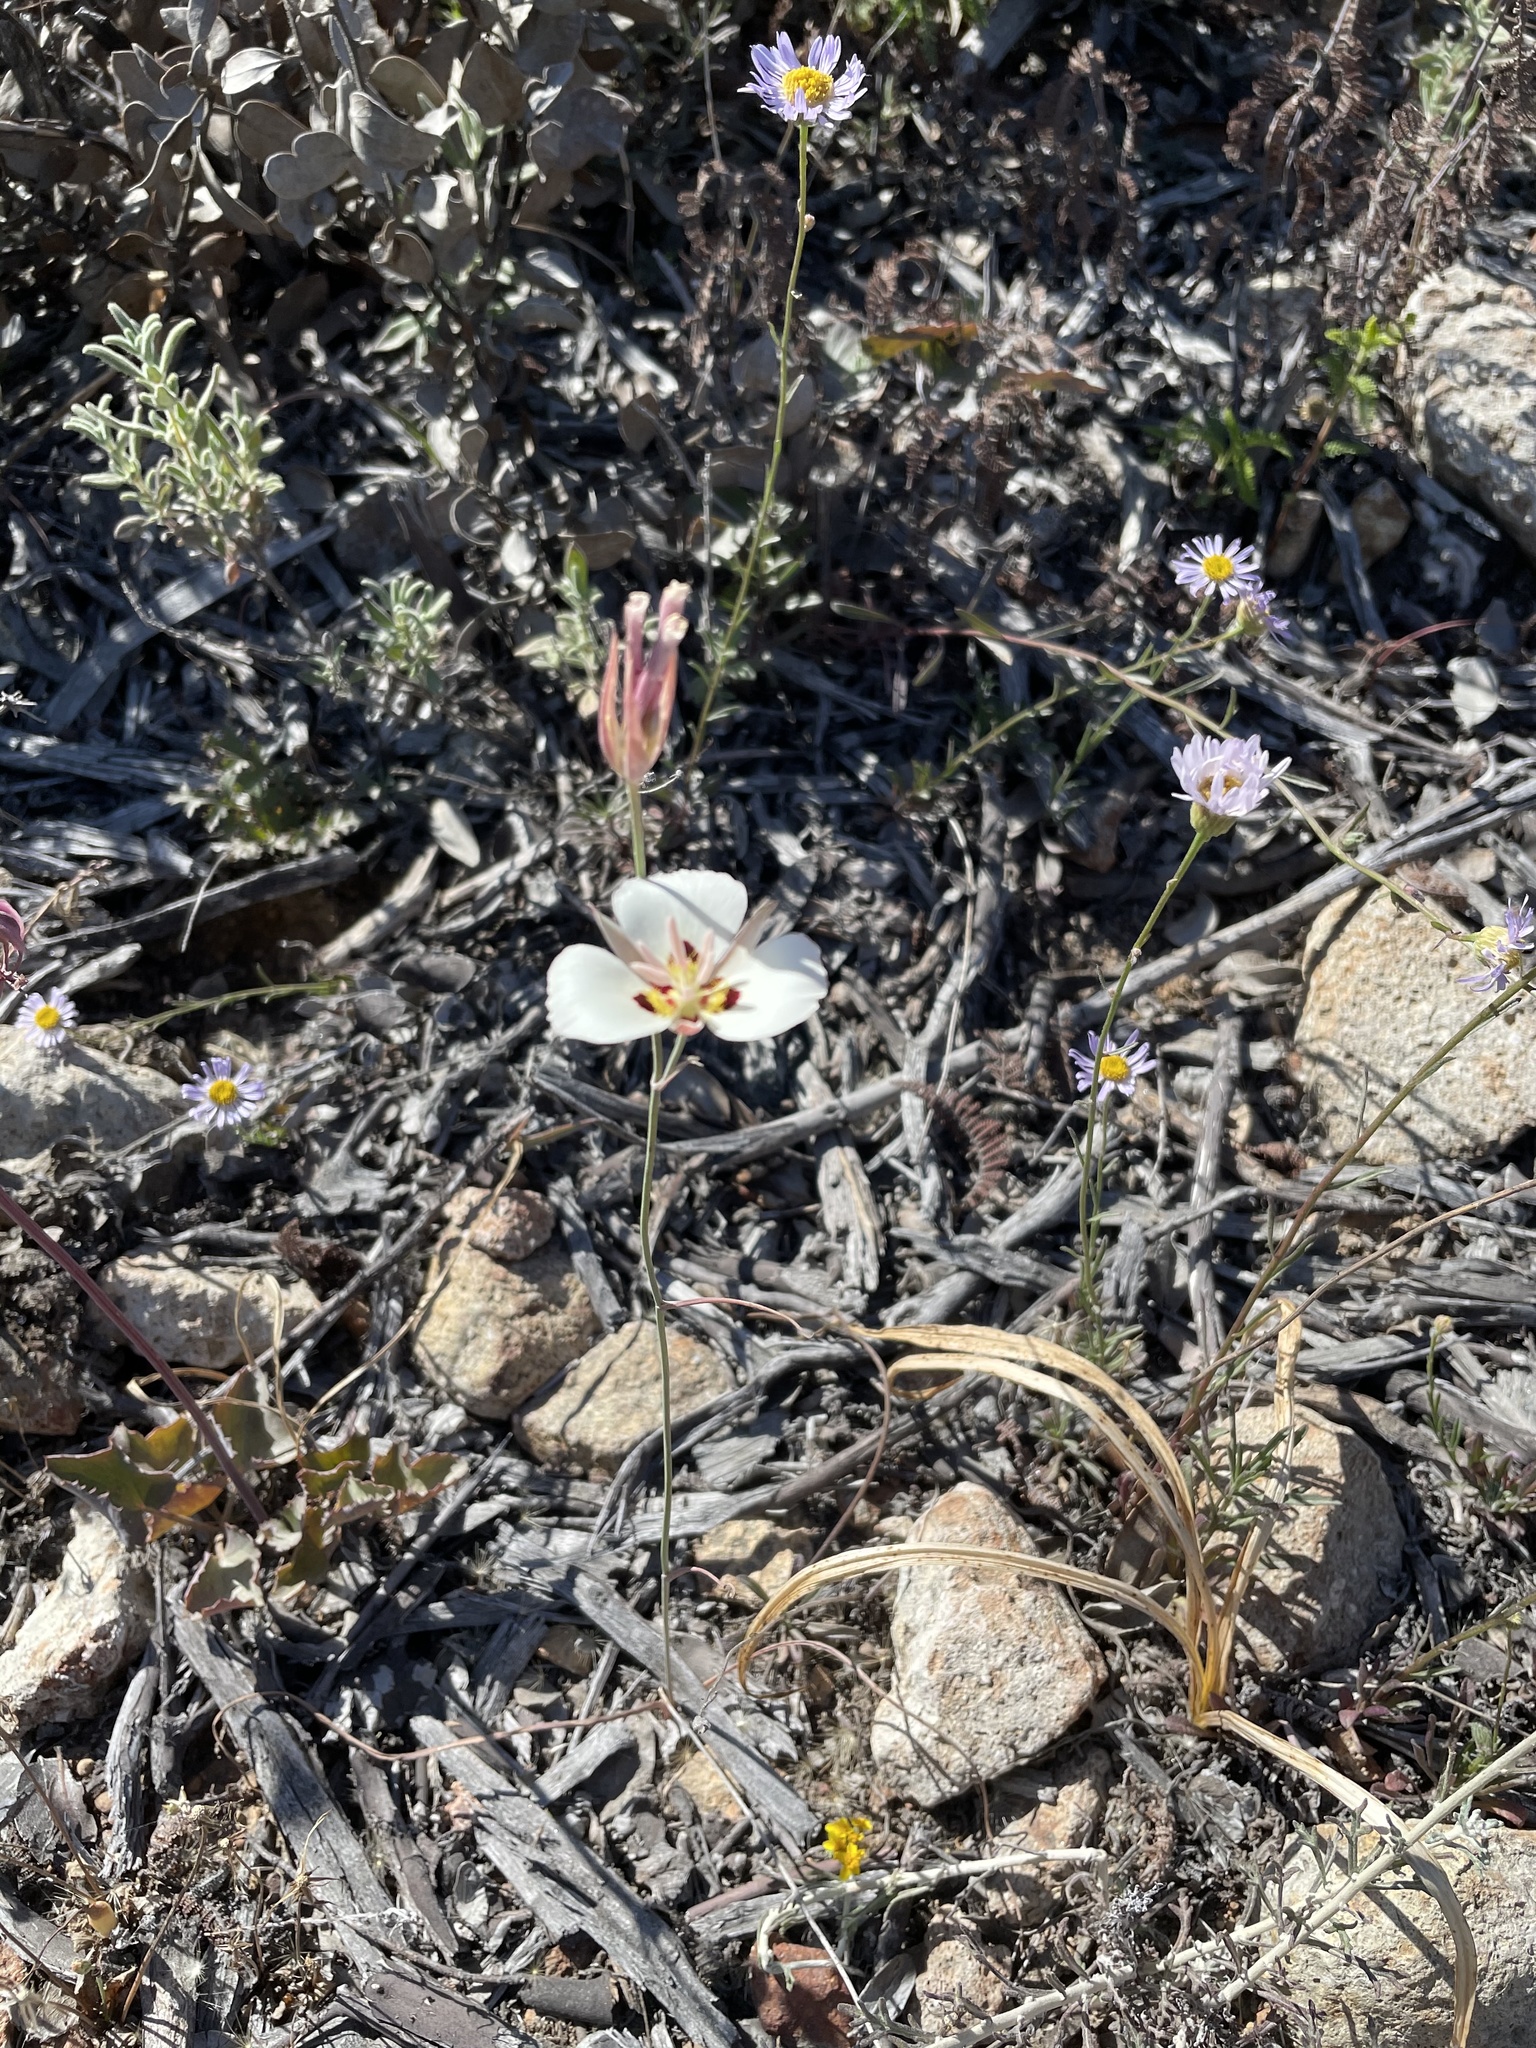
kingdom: Plantae
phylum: Tracheophyta
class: Liliopsida
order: Liliales
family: Liliaceae
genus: Calochortus
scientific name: Calochortus dunnii
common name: Dunn's mariposa-lily
